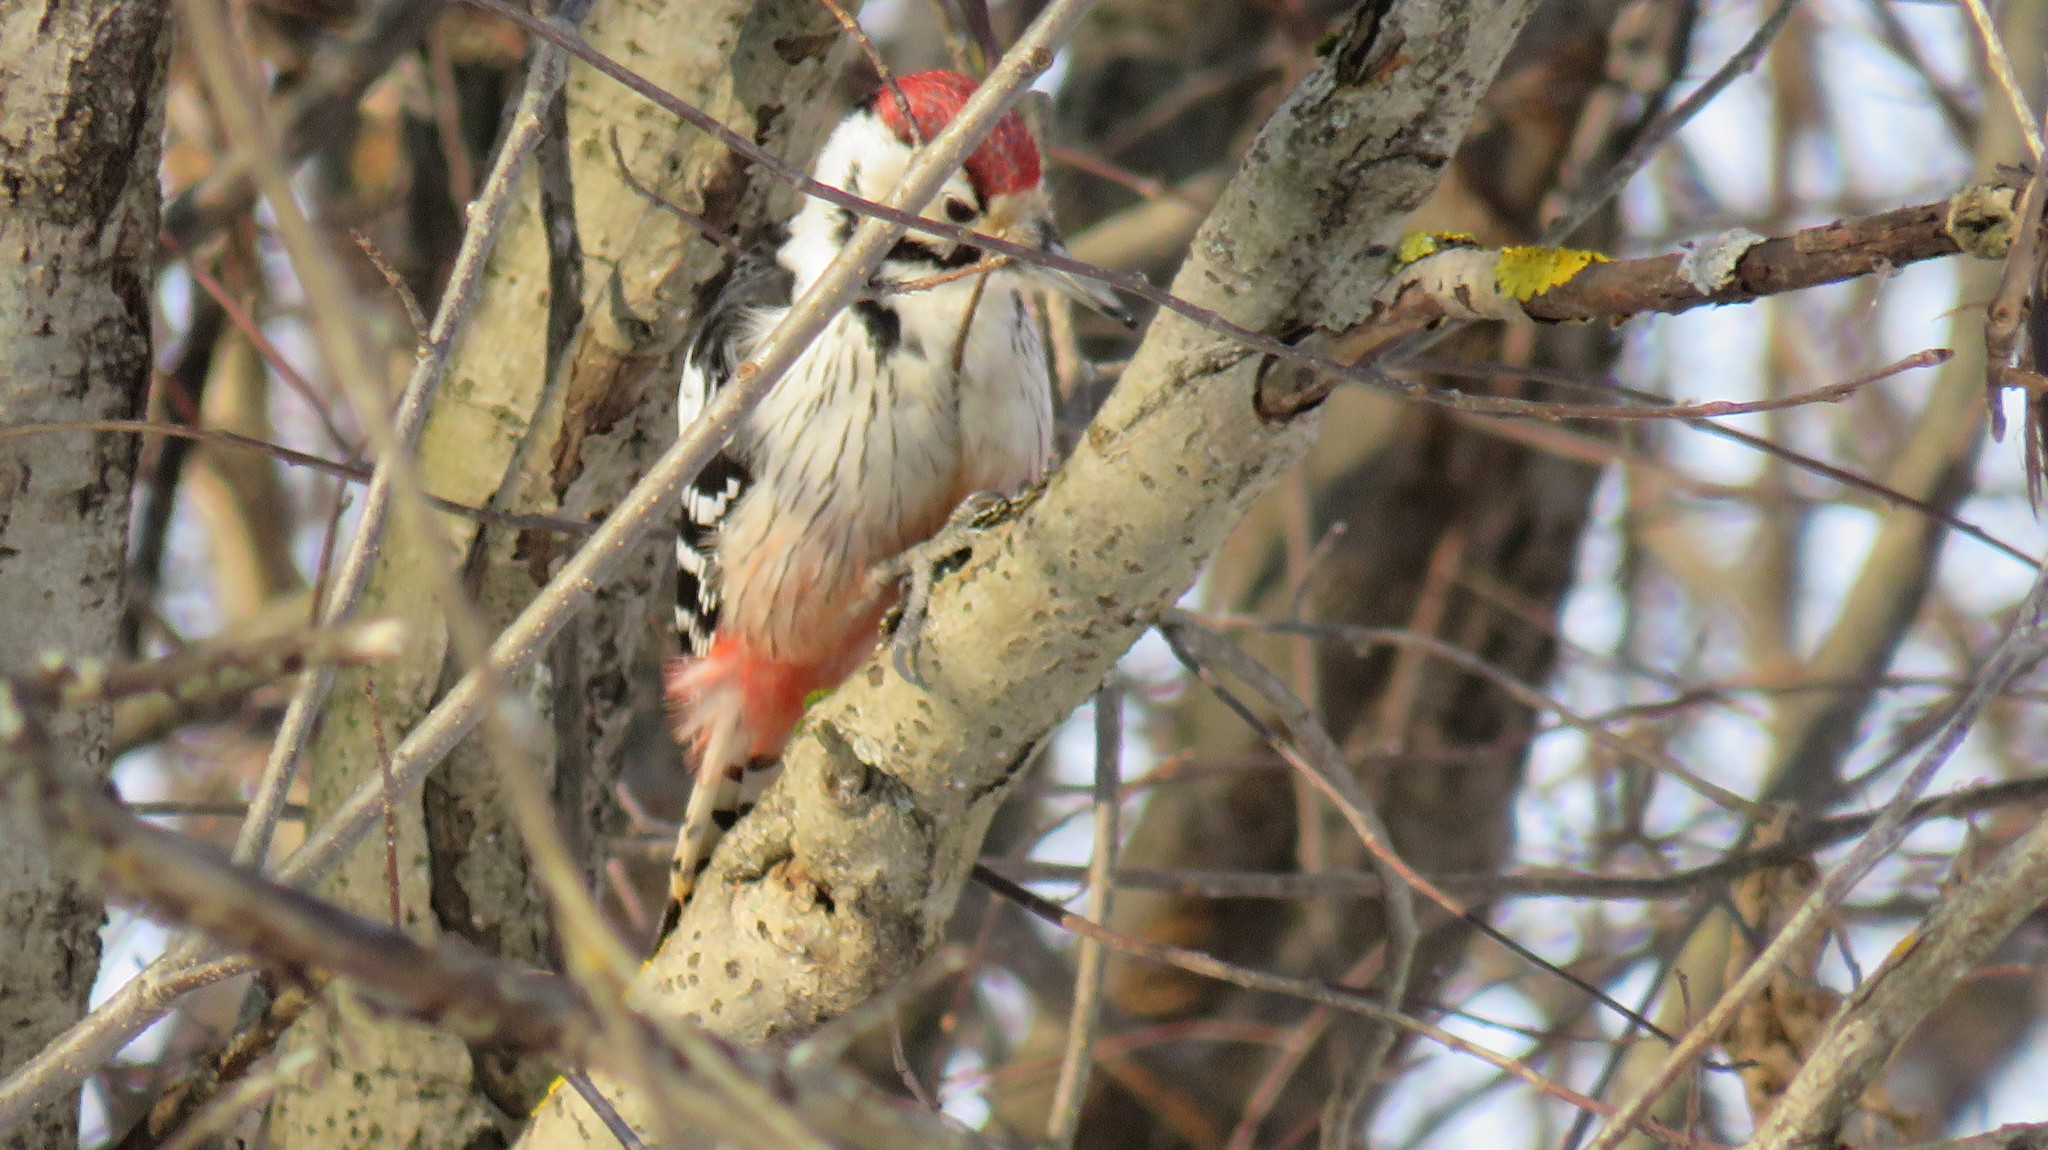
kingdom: Animalia
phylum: Chordata
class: Aves
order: Piciformes
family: Picidae
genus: Dendrocopos
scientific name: Dendrocopos leucotos
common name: White-backed woodpecker
